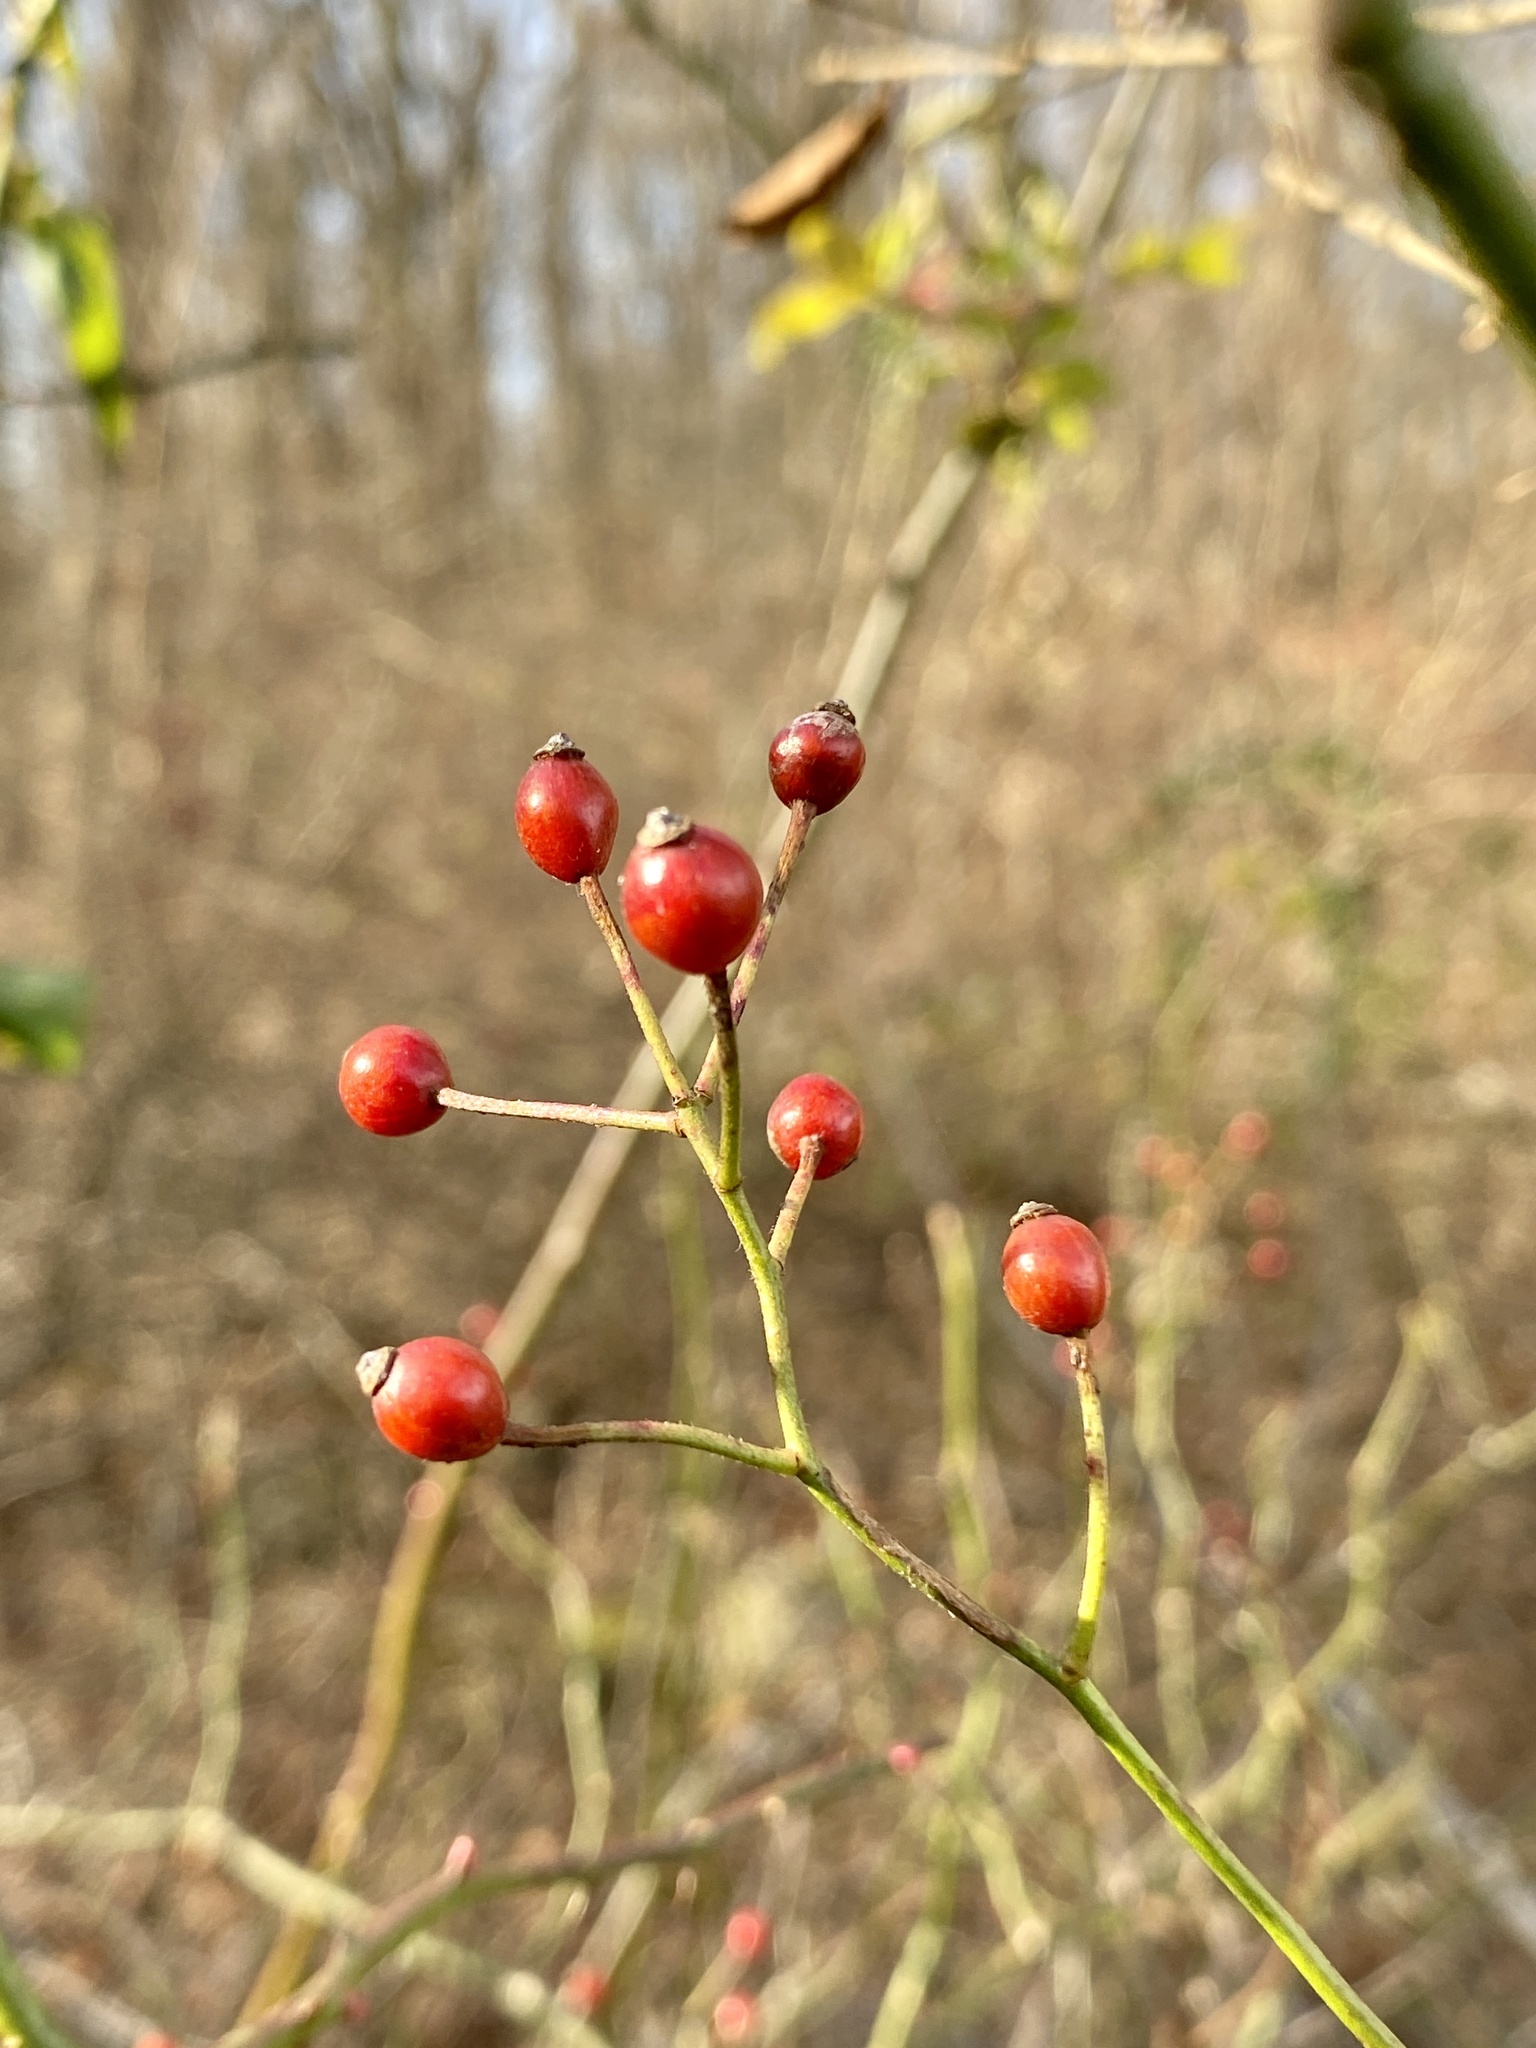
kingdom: Plantae
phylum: Tracheophyta
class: Magnoliopsida
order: Rosales
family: Rosaceae
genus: Rosa
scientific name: Rosa multiflora
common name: Multiflora rose
